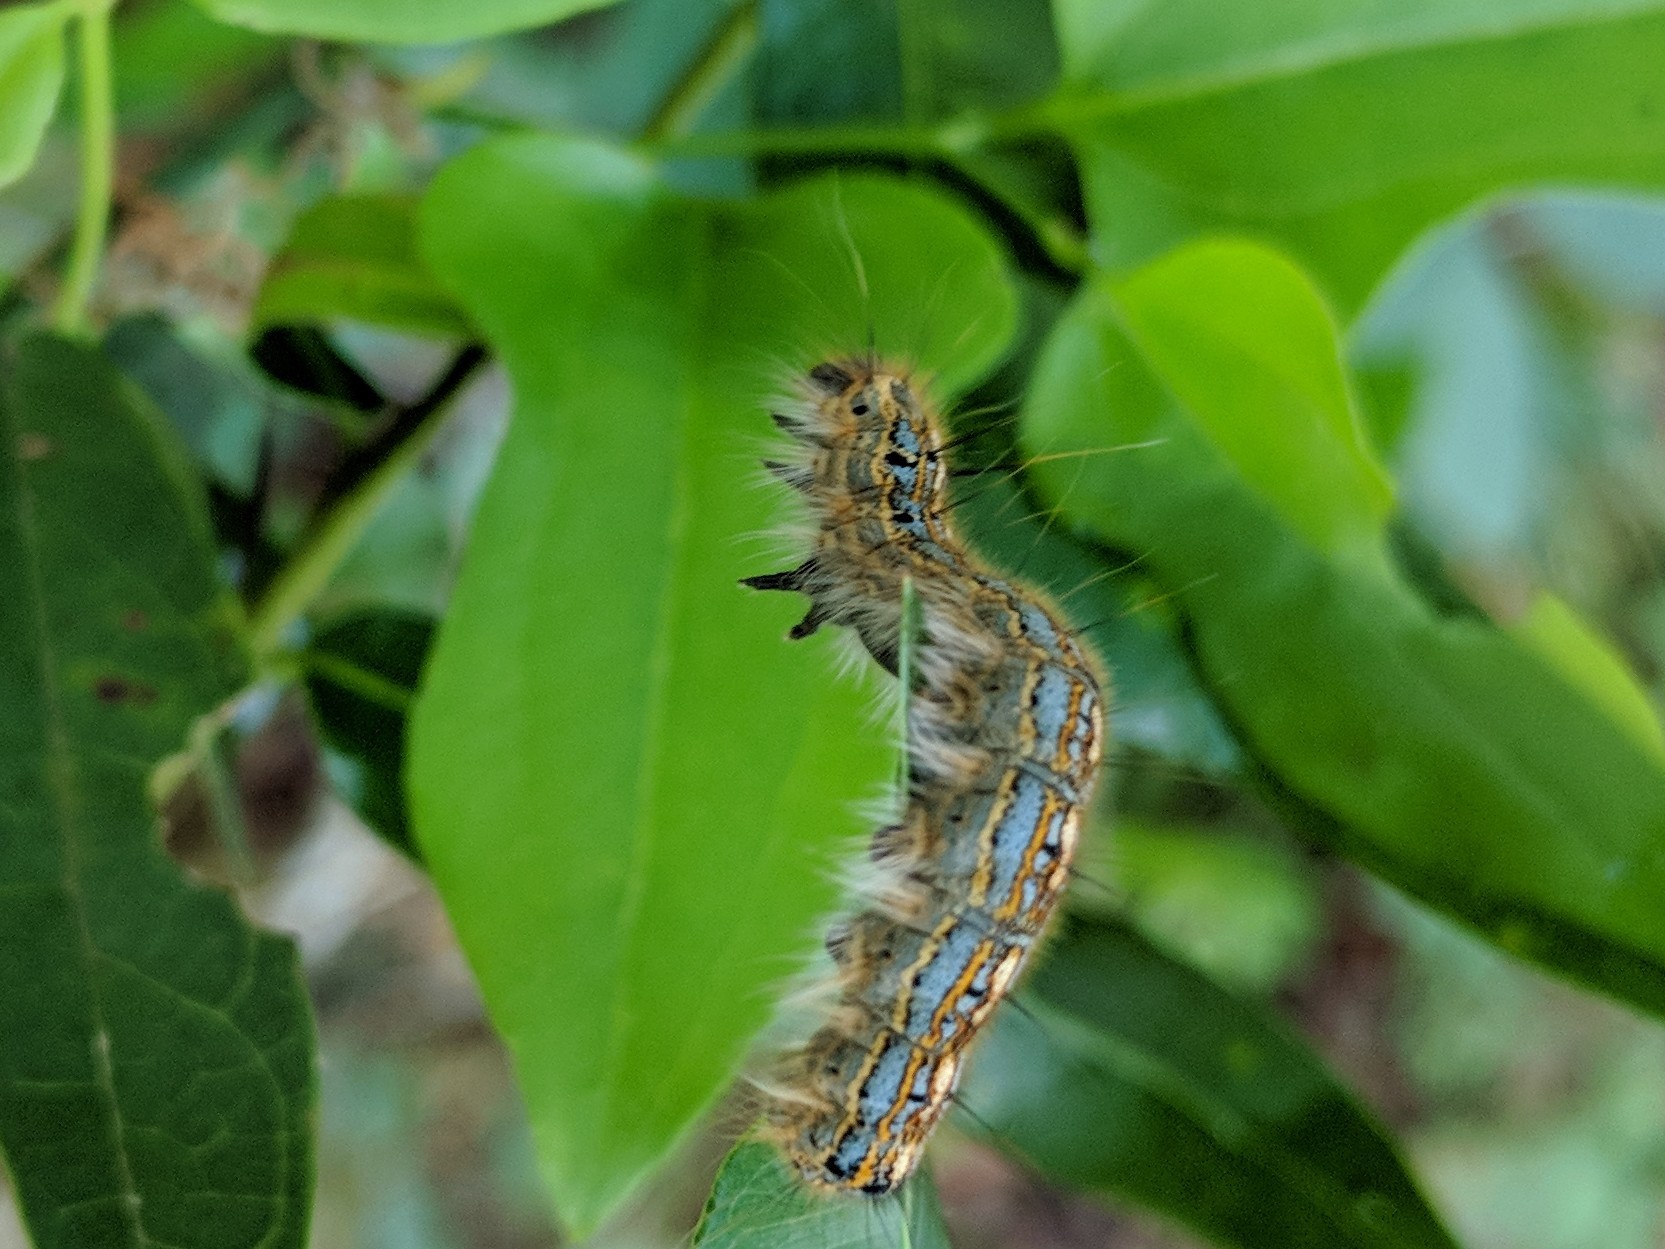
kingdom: Animalia
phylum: Arthropoda
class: Insecta
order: Lepidoptera
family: Lasiocampidae
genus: Malacosoma
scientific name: Malacosoma disstria
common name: Forest tent caterpillar
